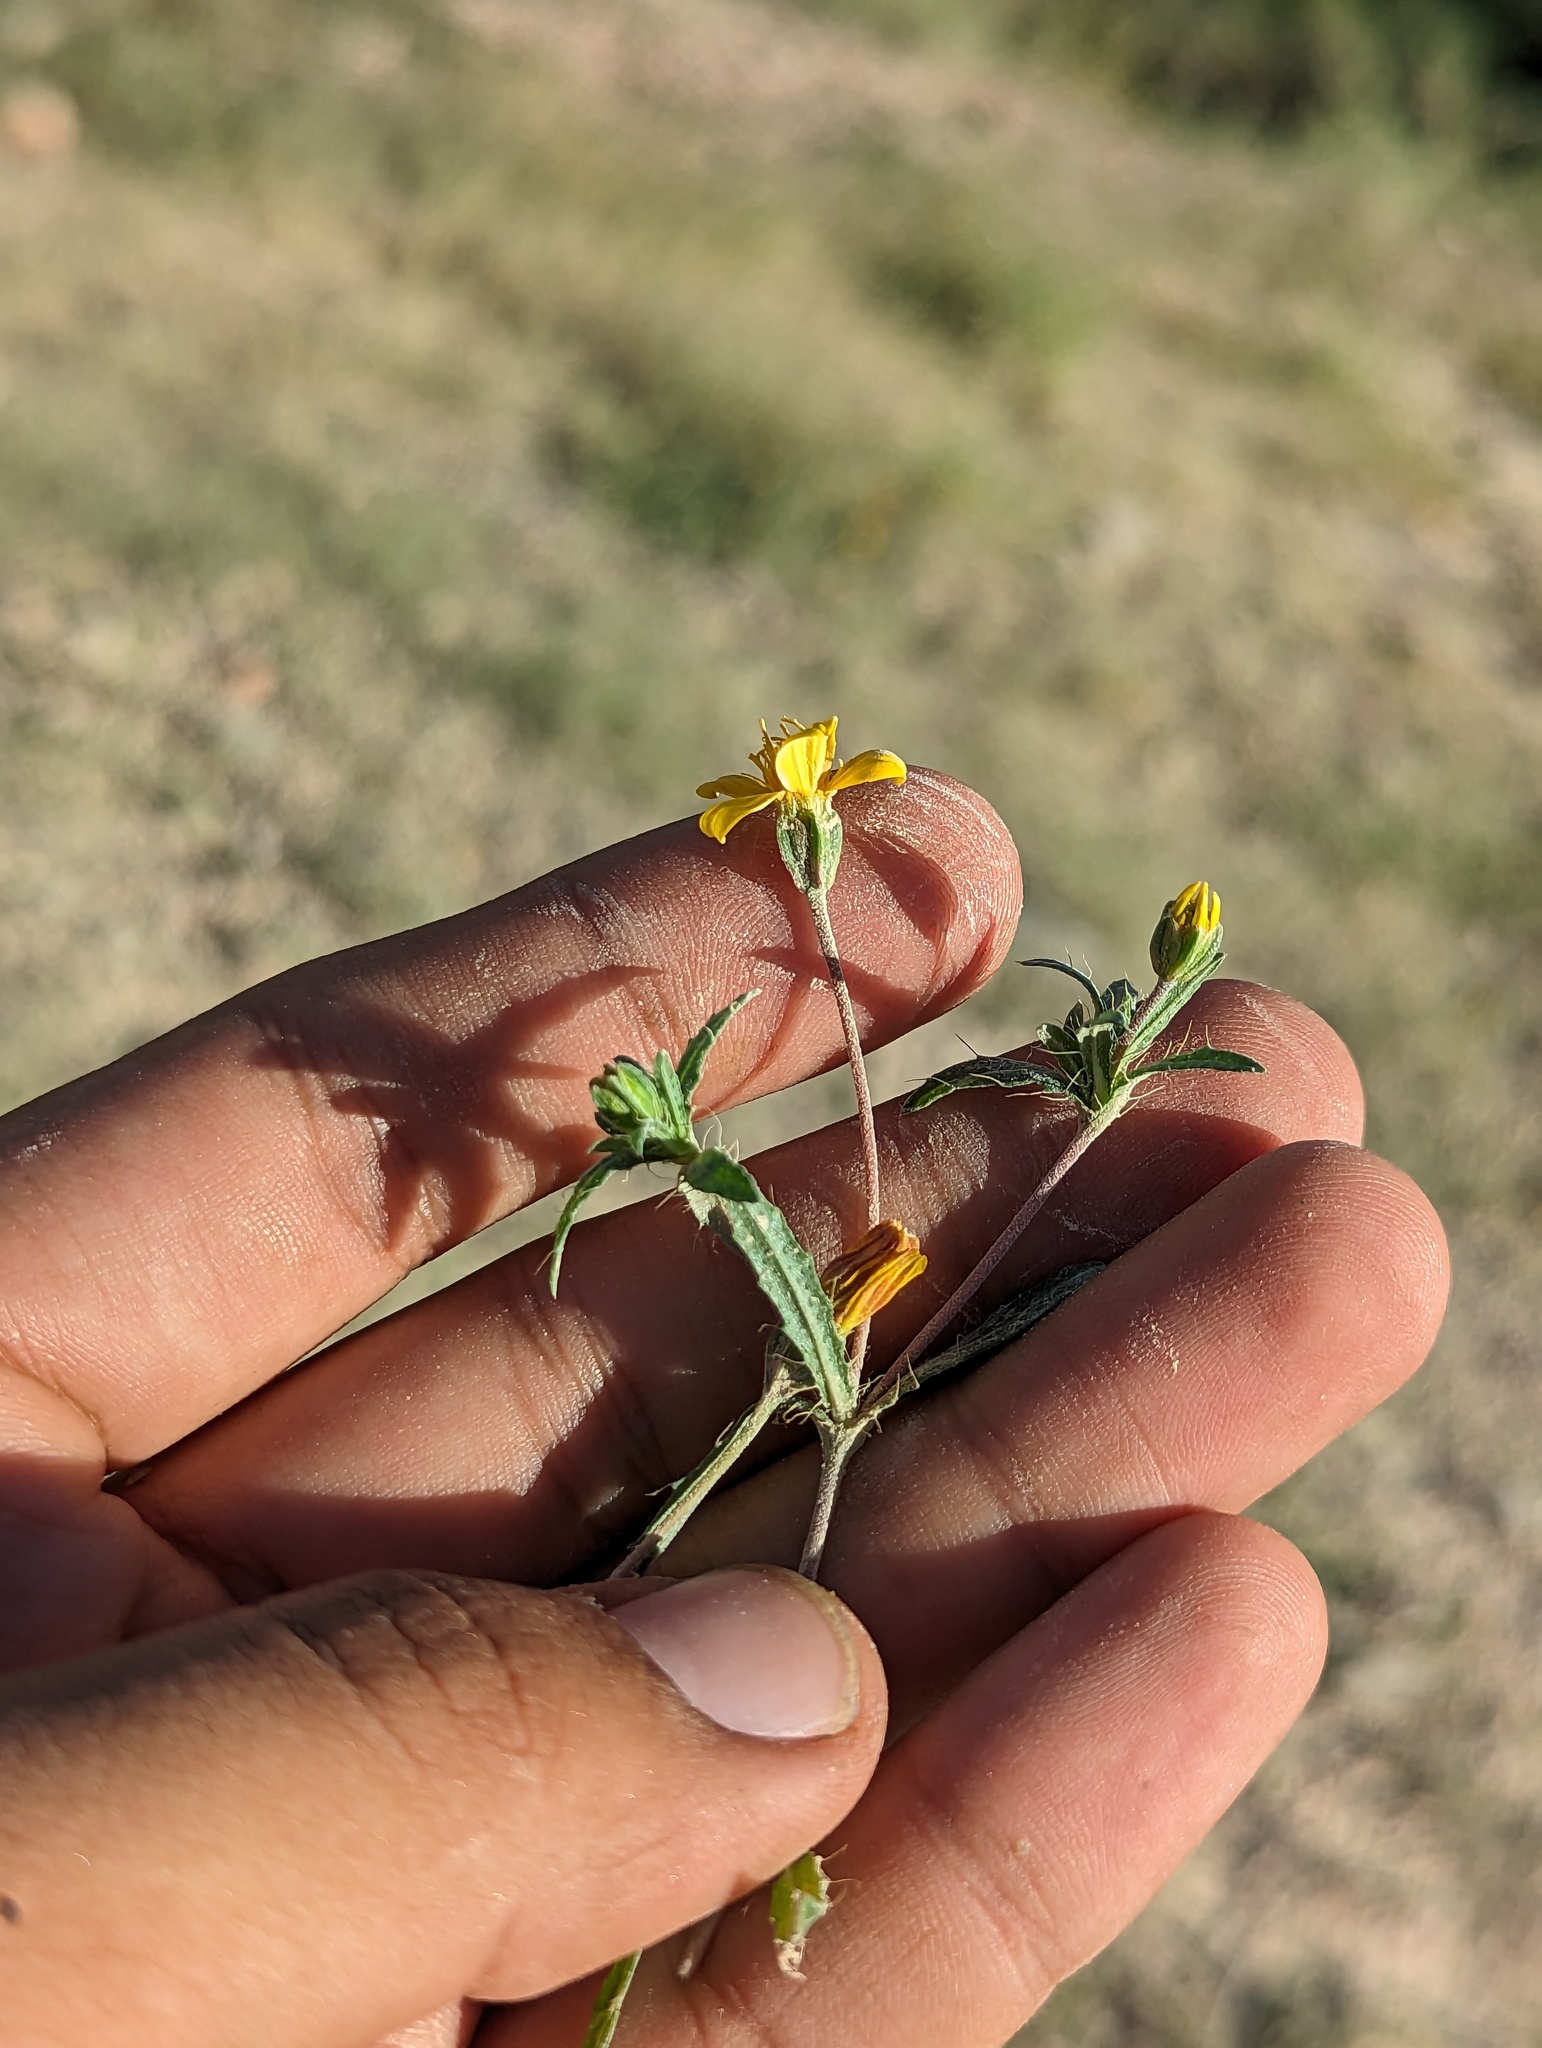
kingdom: Plantae
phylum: Tracheophyta
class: Magnoliopsida
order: Asterales
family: Asteraceae
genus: Pectis
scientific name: Pectis multiseta
